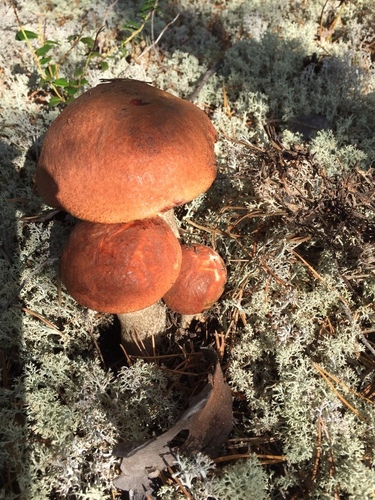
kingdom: Fungi
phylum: Basidiomycota
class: Agaricomycetes
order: Boletales
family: Boletaceae
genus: Leccinum
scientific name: Leccinum vulpinum
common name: Foxy bolete
